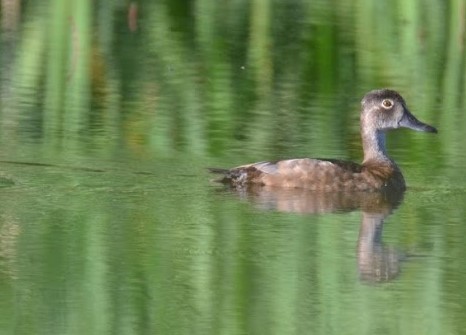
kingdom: Animalia
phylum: Chordata
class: Aves
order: Anseriformes
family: Anatidae
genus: Aythya
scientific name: Aythya collaris
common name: Ring-necked duck
